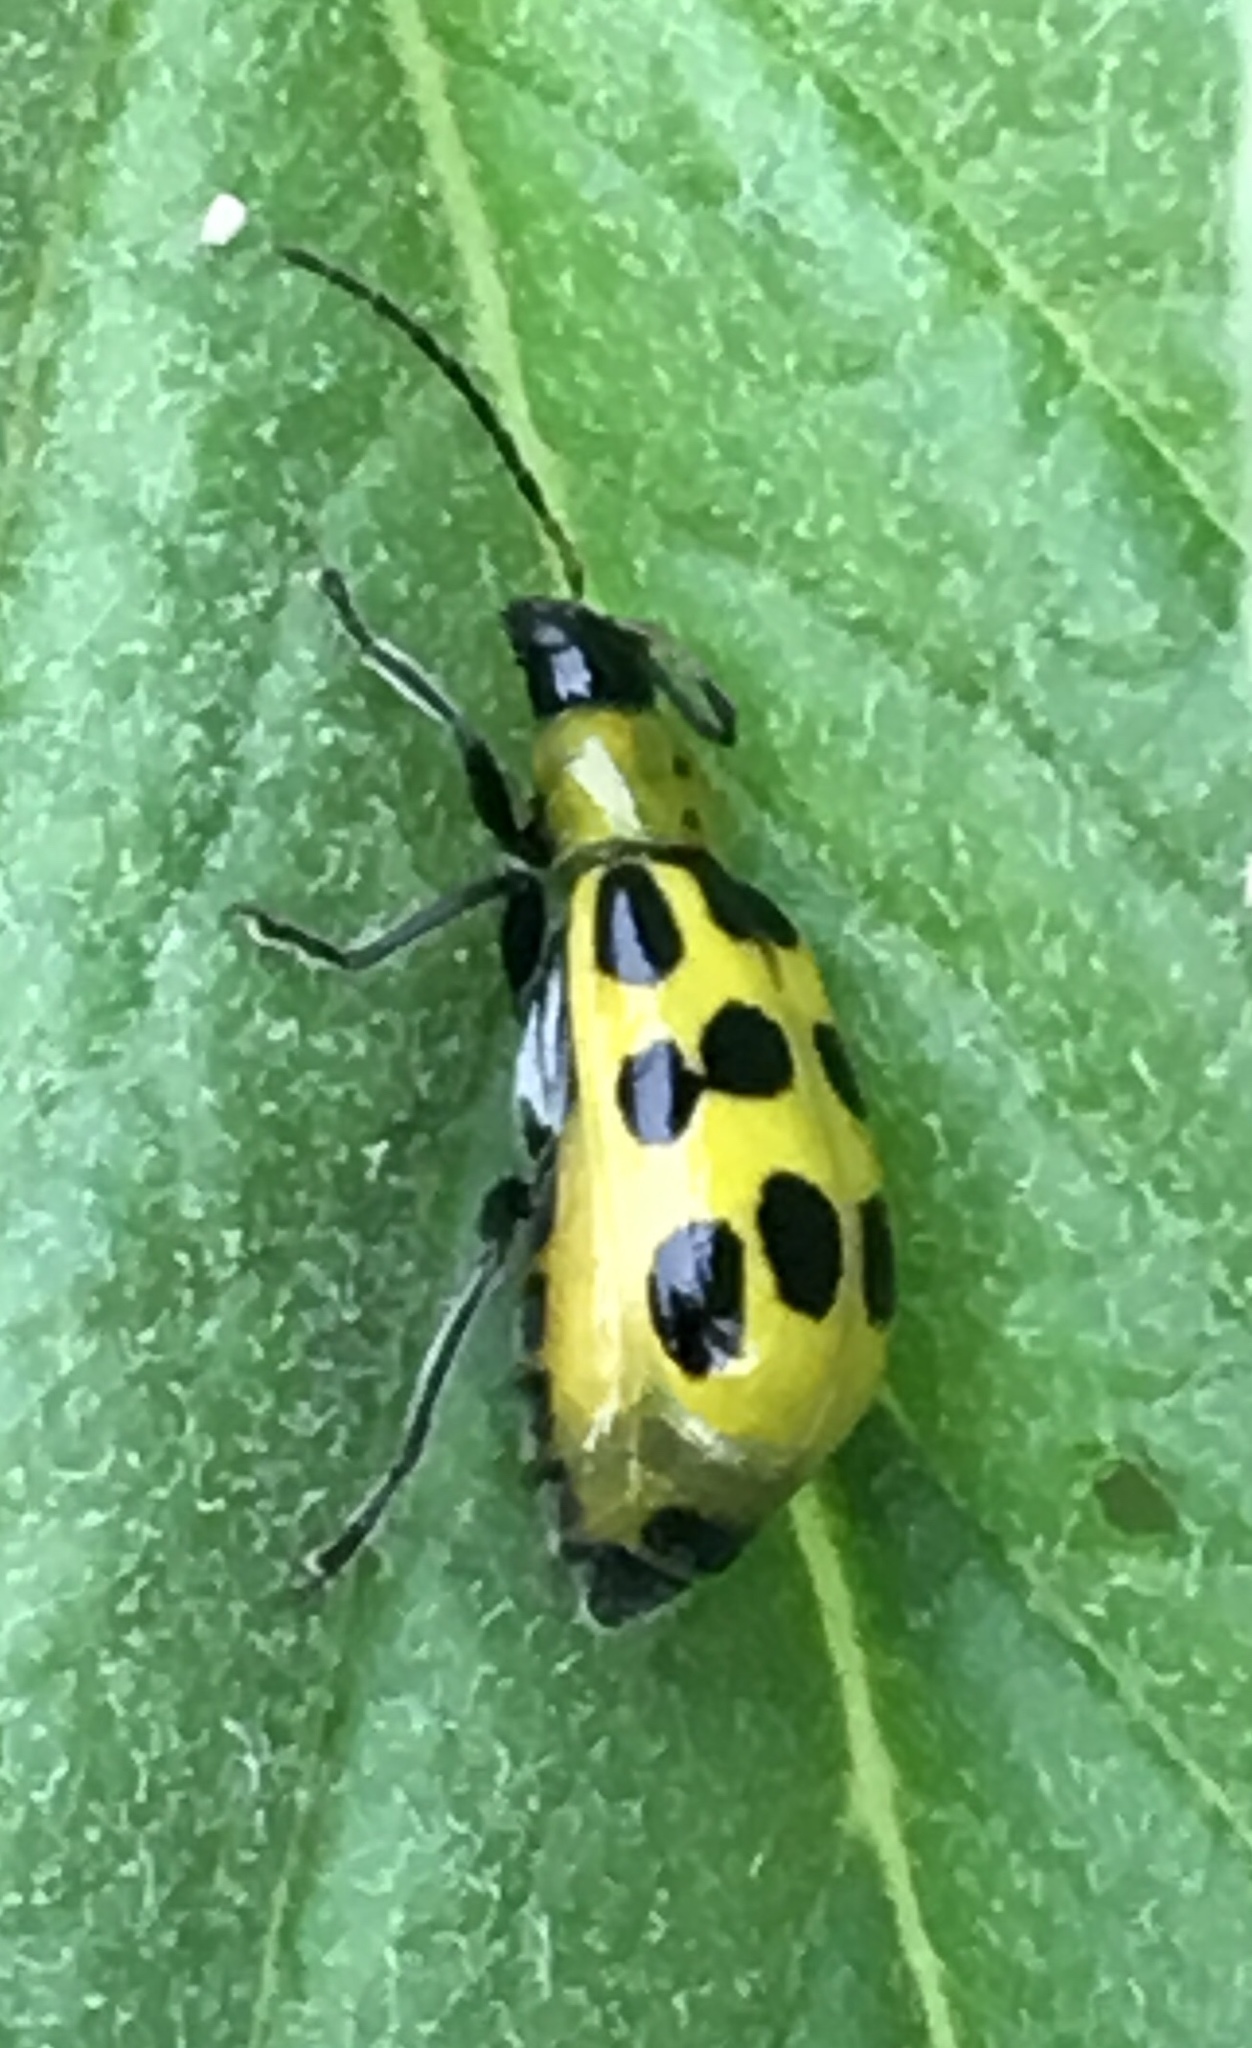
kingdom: Animalia
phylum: Arthropoda
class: Insecta
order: Coleoptera
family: Chrysomelidae
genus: Diabrotica
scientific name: Diabrotica undecimpunctata
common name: Spotted cucumber beetle
